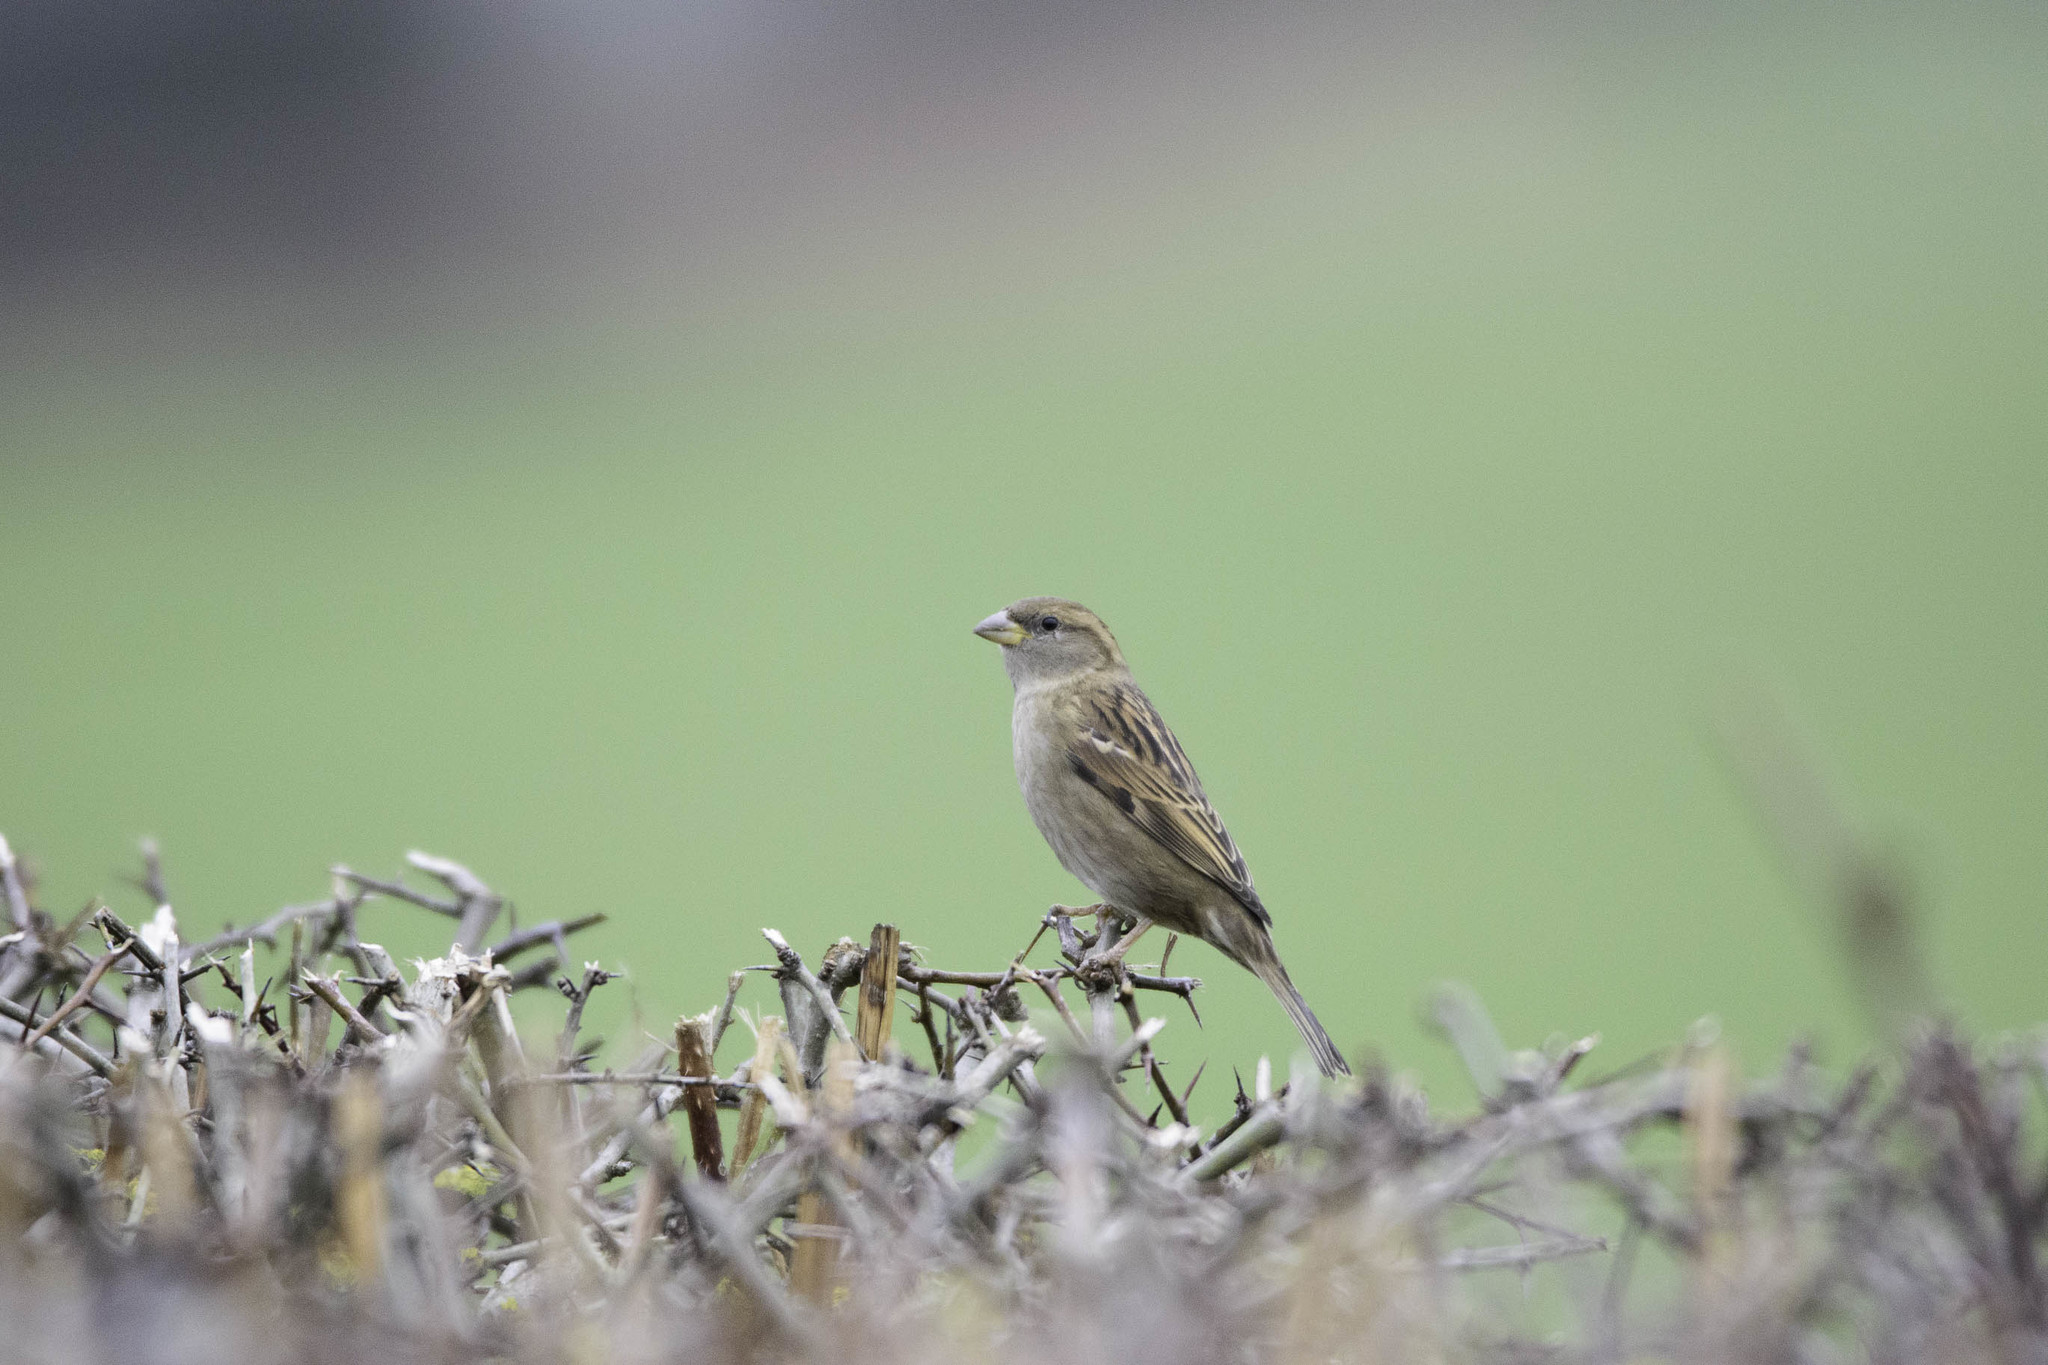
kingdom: Animalia
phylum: Chordata
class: Aves
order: Passeriformes
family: Passeridae
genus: Passer
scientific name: Passer domesticus
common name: House sparrow
